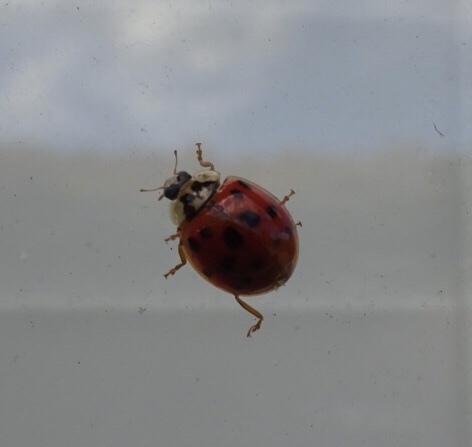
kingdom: Animalia
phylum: Arthropoda
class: Insecta
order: Coleoptera
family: Coccinellidae
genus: Harmonia
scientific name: Harmonia axyridis
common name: Harlequin ladybird
